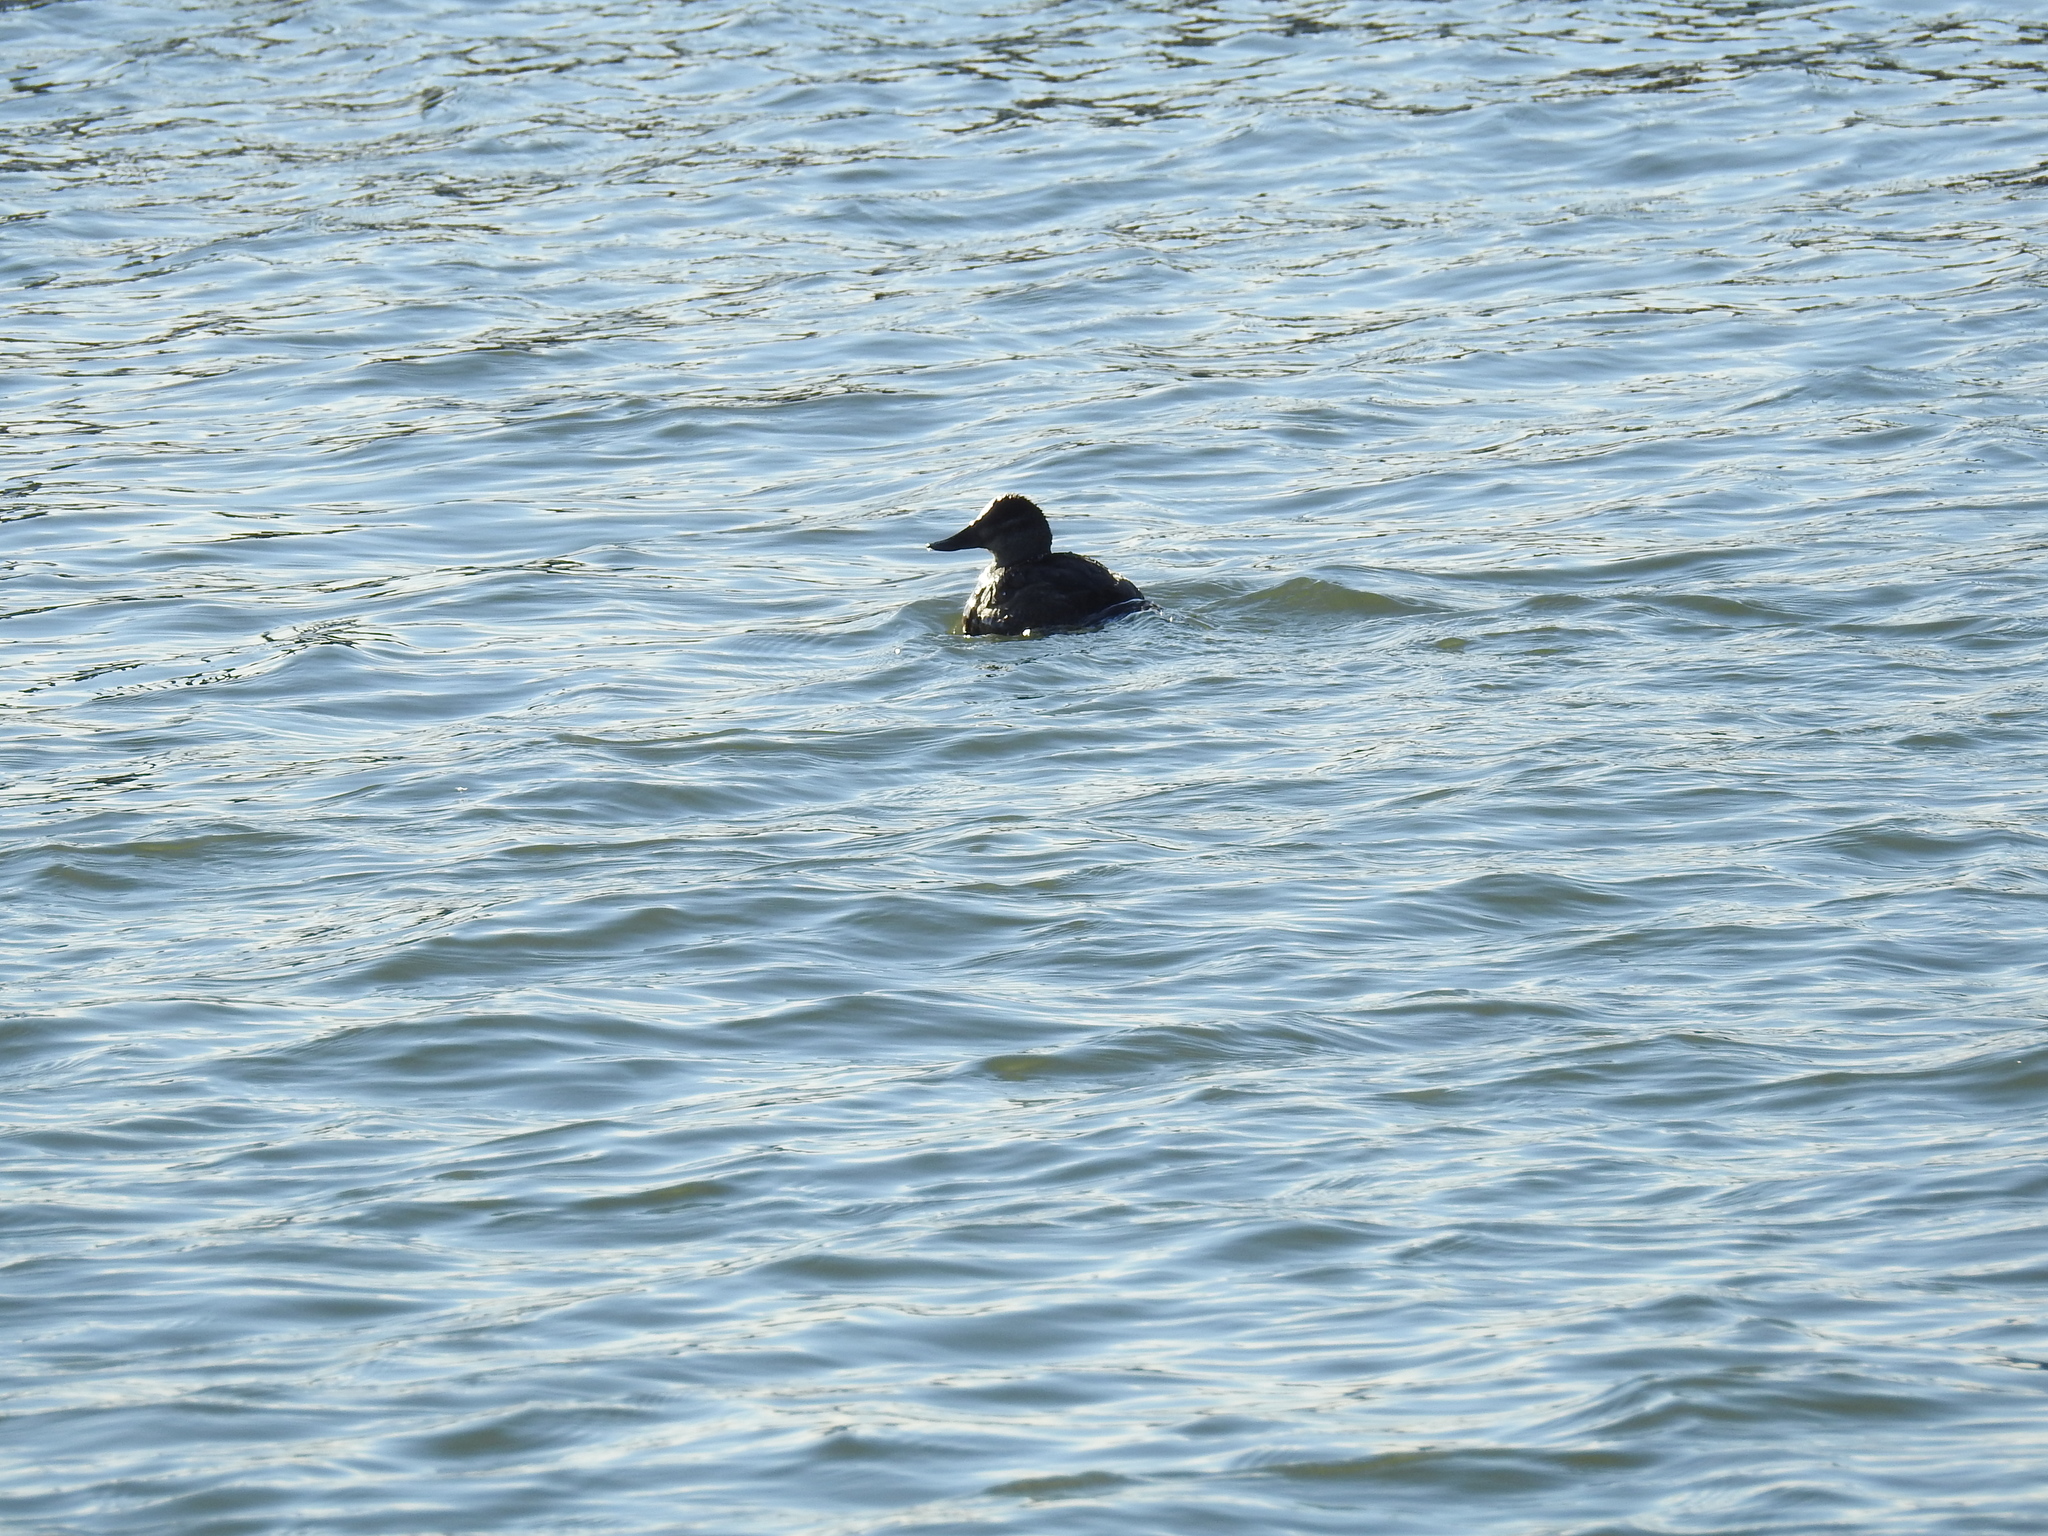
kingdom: Animalia
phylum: Chordata
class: Aves
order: Anseriformes
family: Anatidae
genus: Oxyura
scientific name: Oxyura jamaicensis
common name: Ruddy duck
